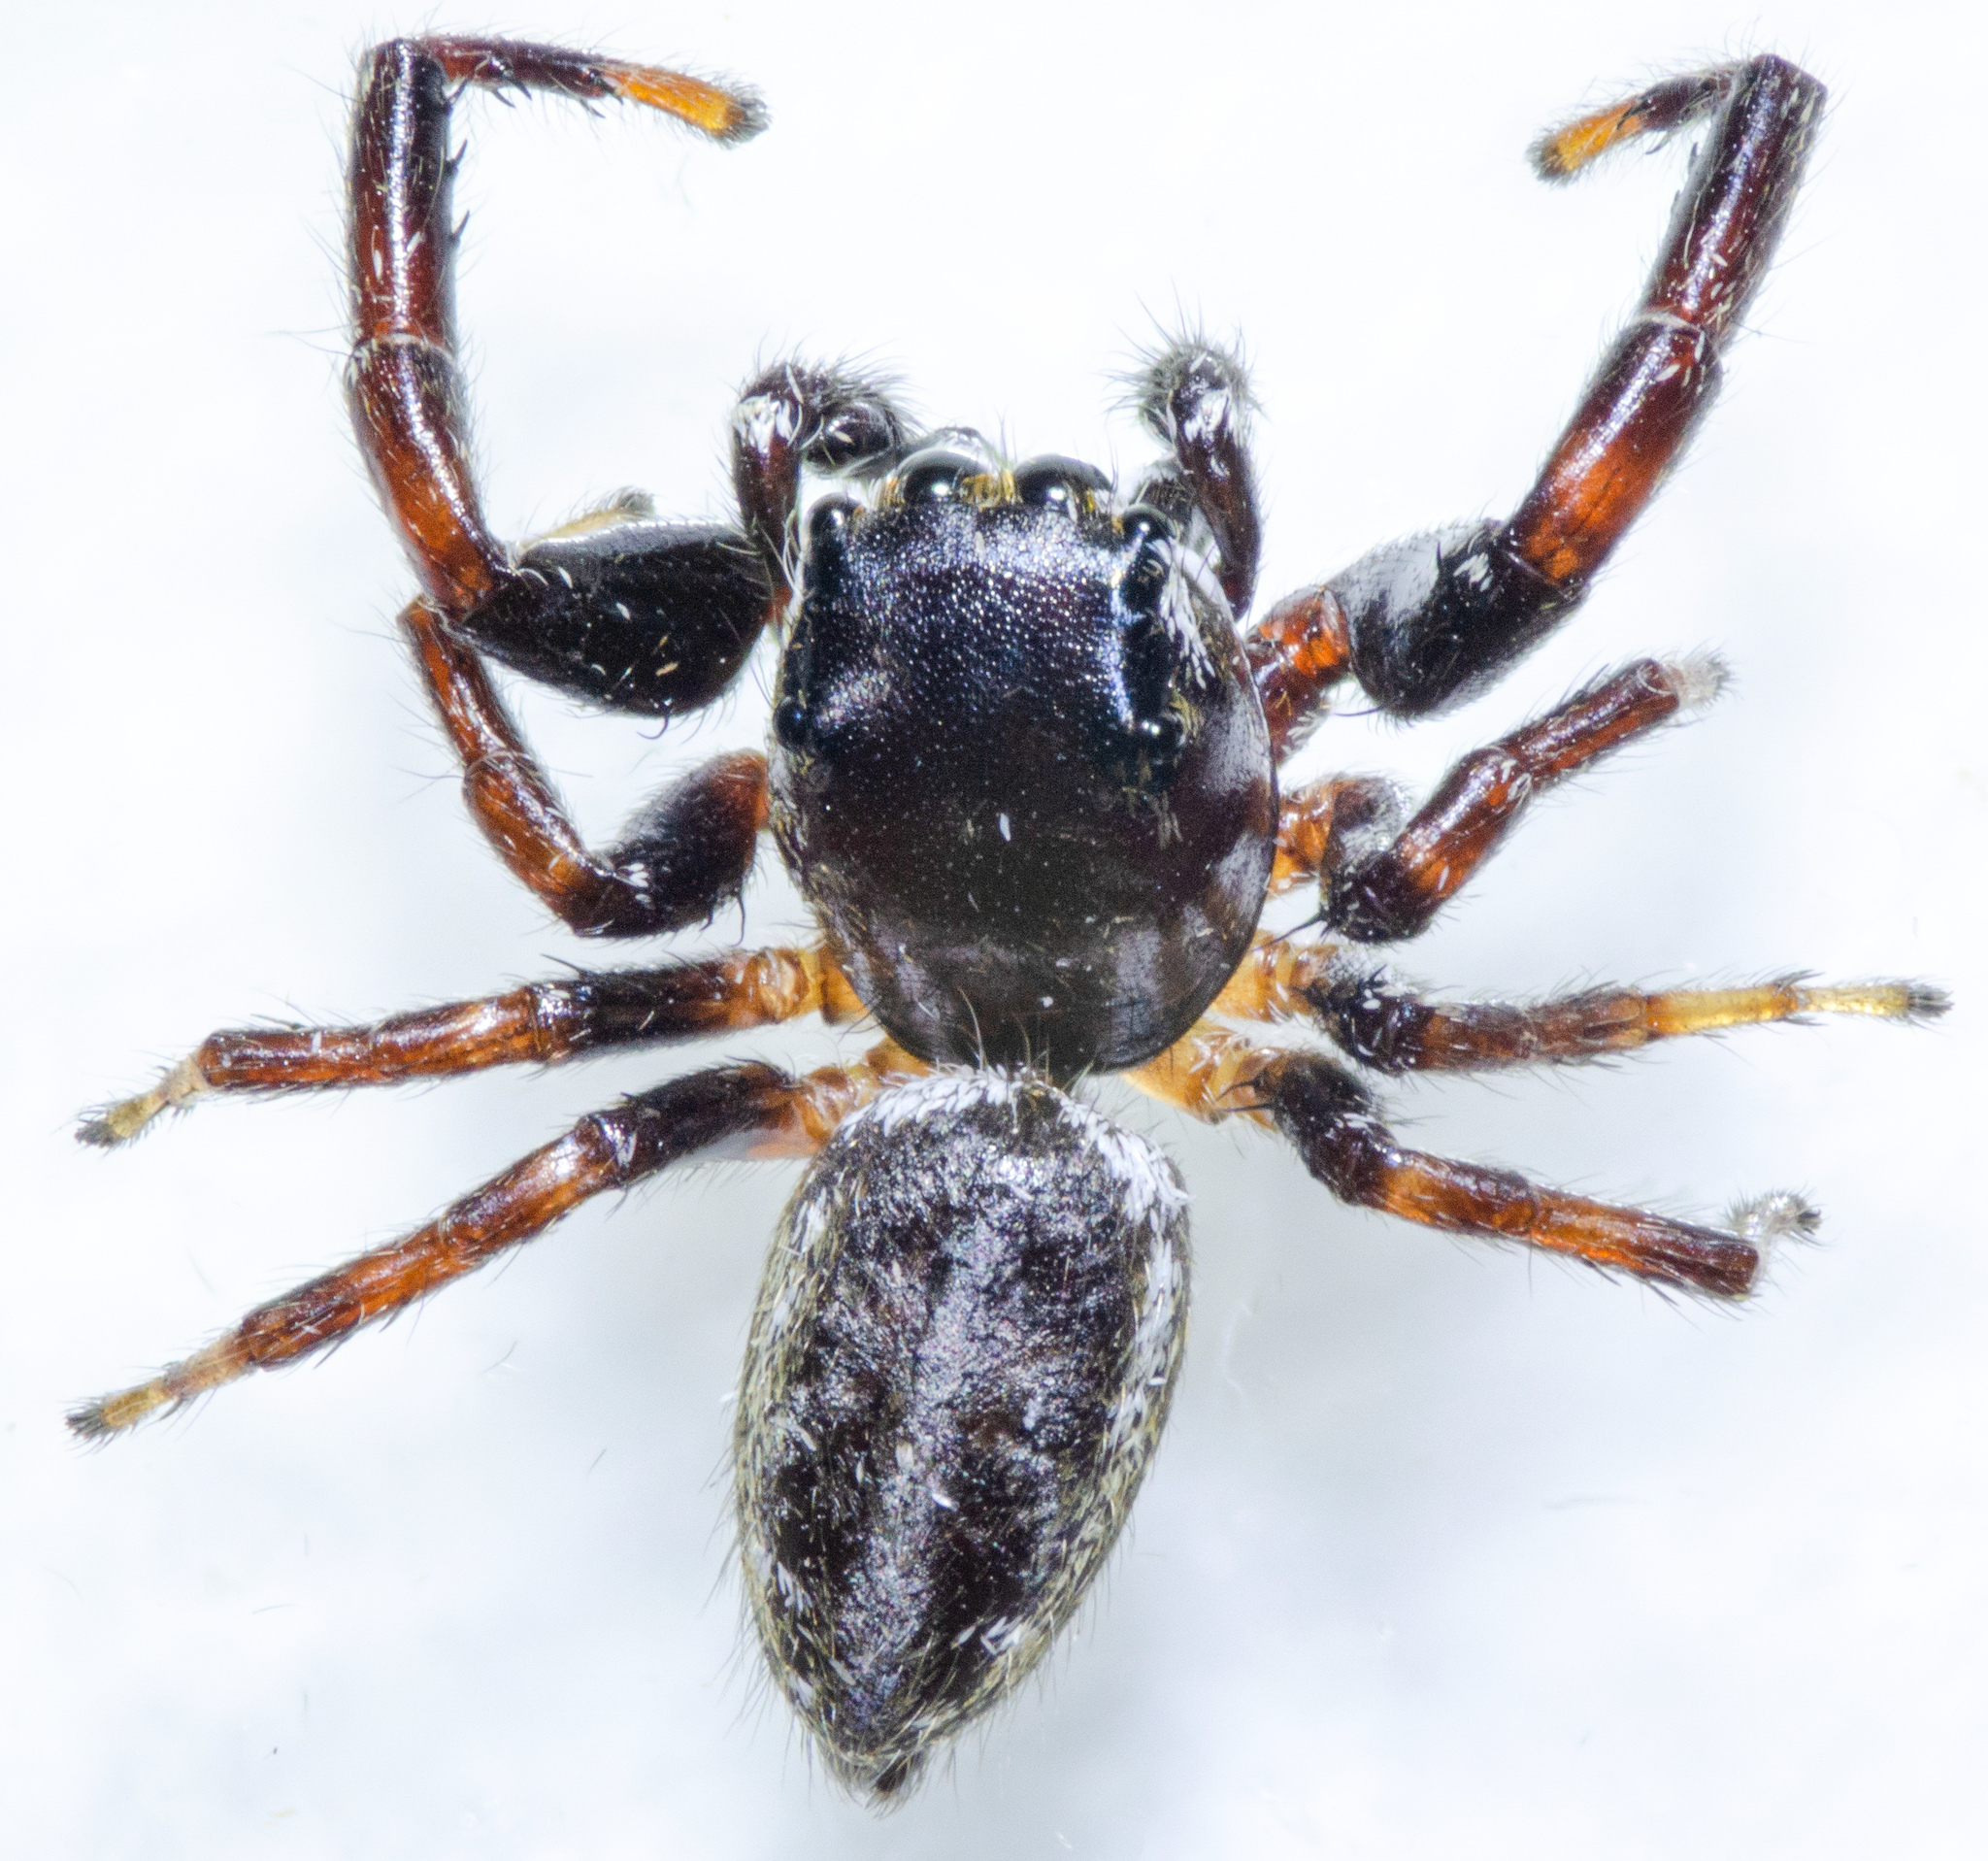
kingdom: Animalia
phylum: Arthropoda
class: Arachnida
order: Araneae
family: Salticidae
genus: Metaphidippus
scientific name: Metaphidippus manni
